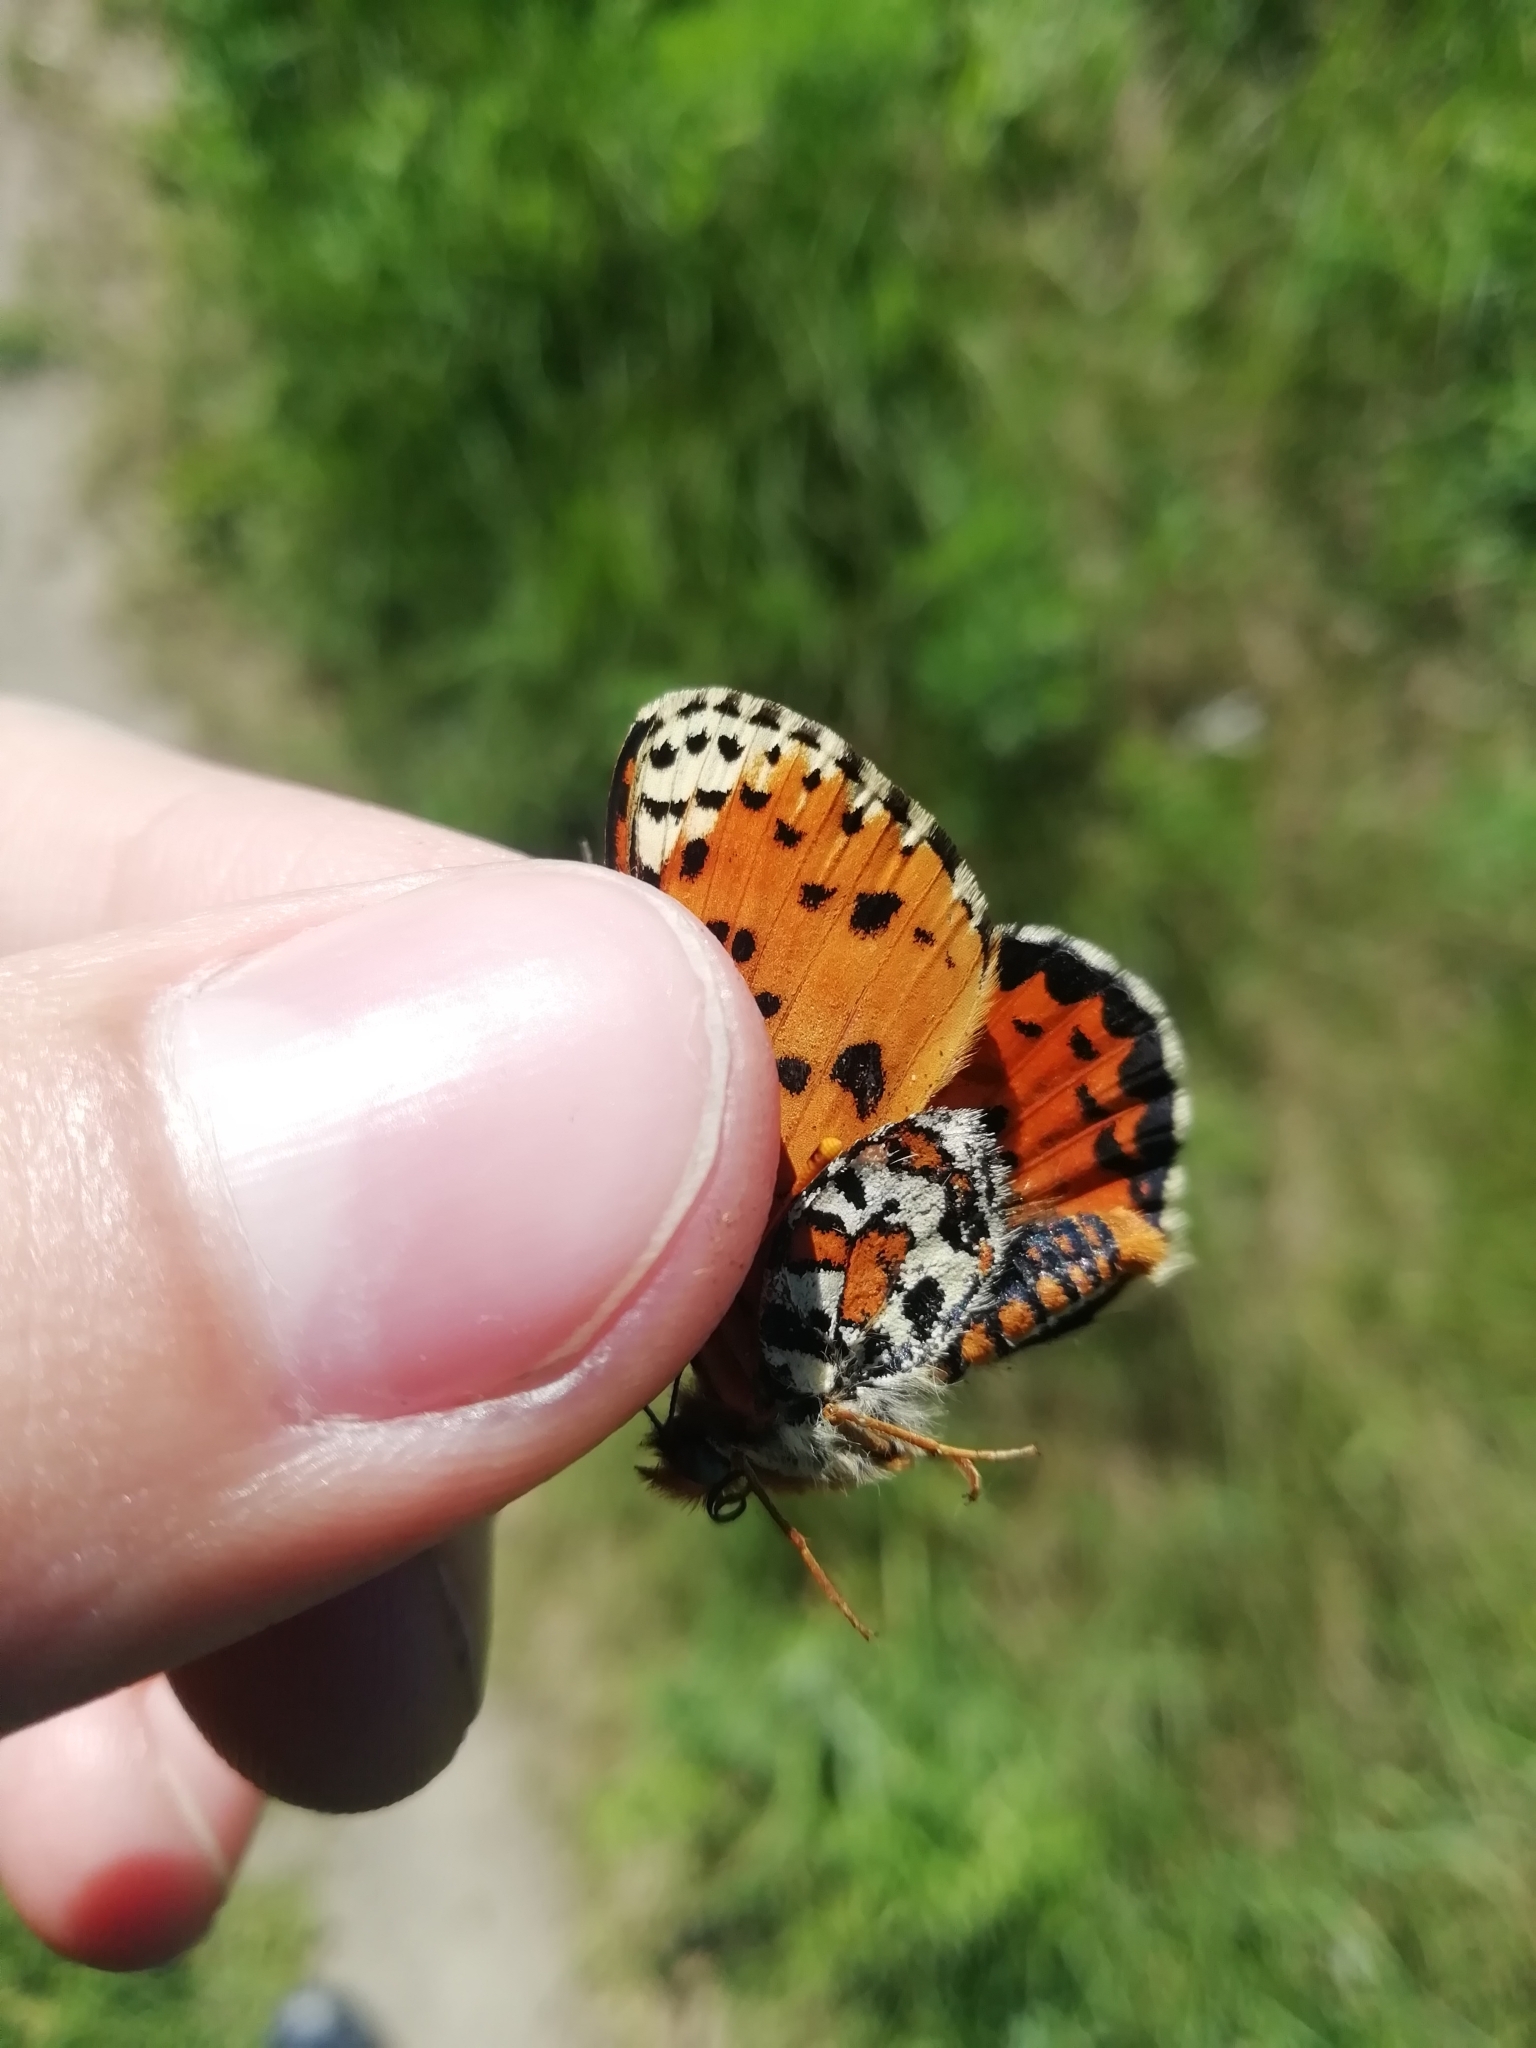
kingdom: Animalia
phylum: Arthropoda
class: Insecta
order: Lepidoptera
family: Nymphalidae
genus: Melitaea
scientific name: Melitaea didyma
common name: Spotted fritillary
